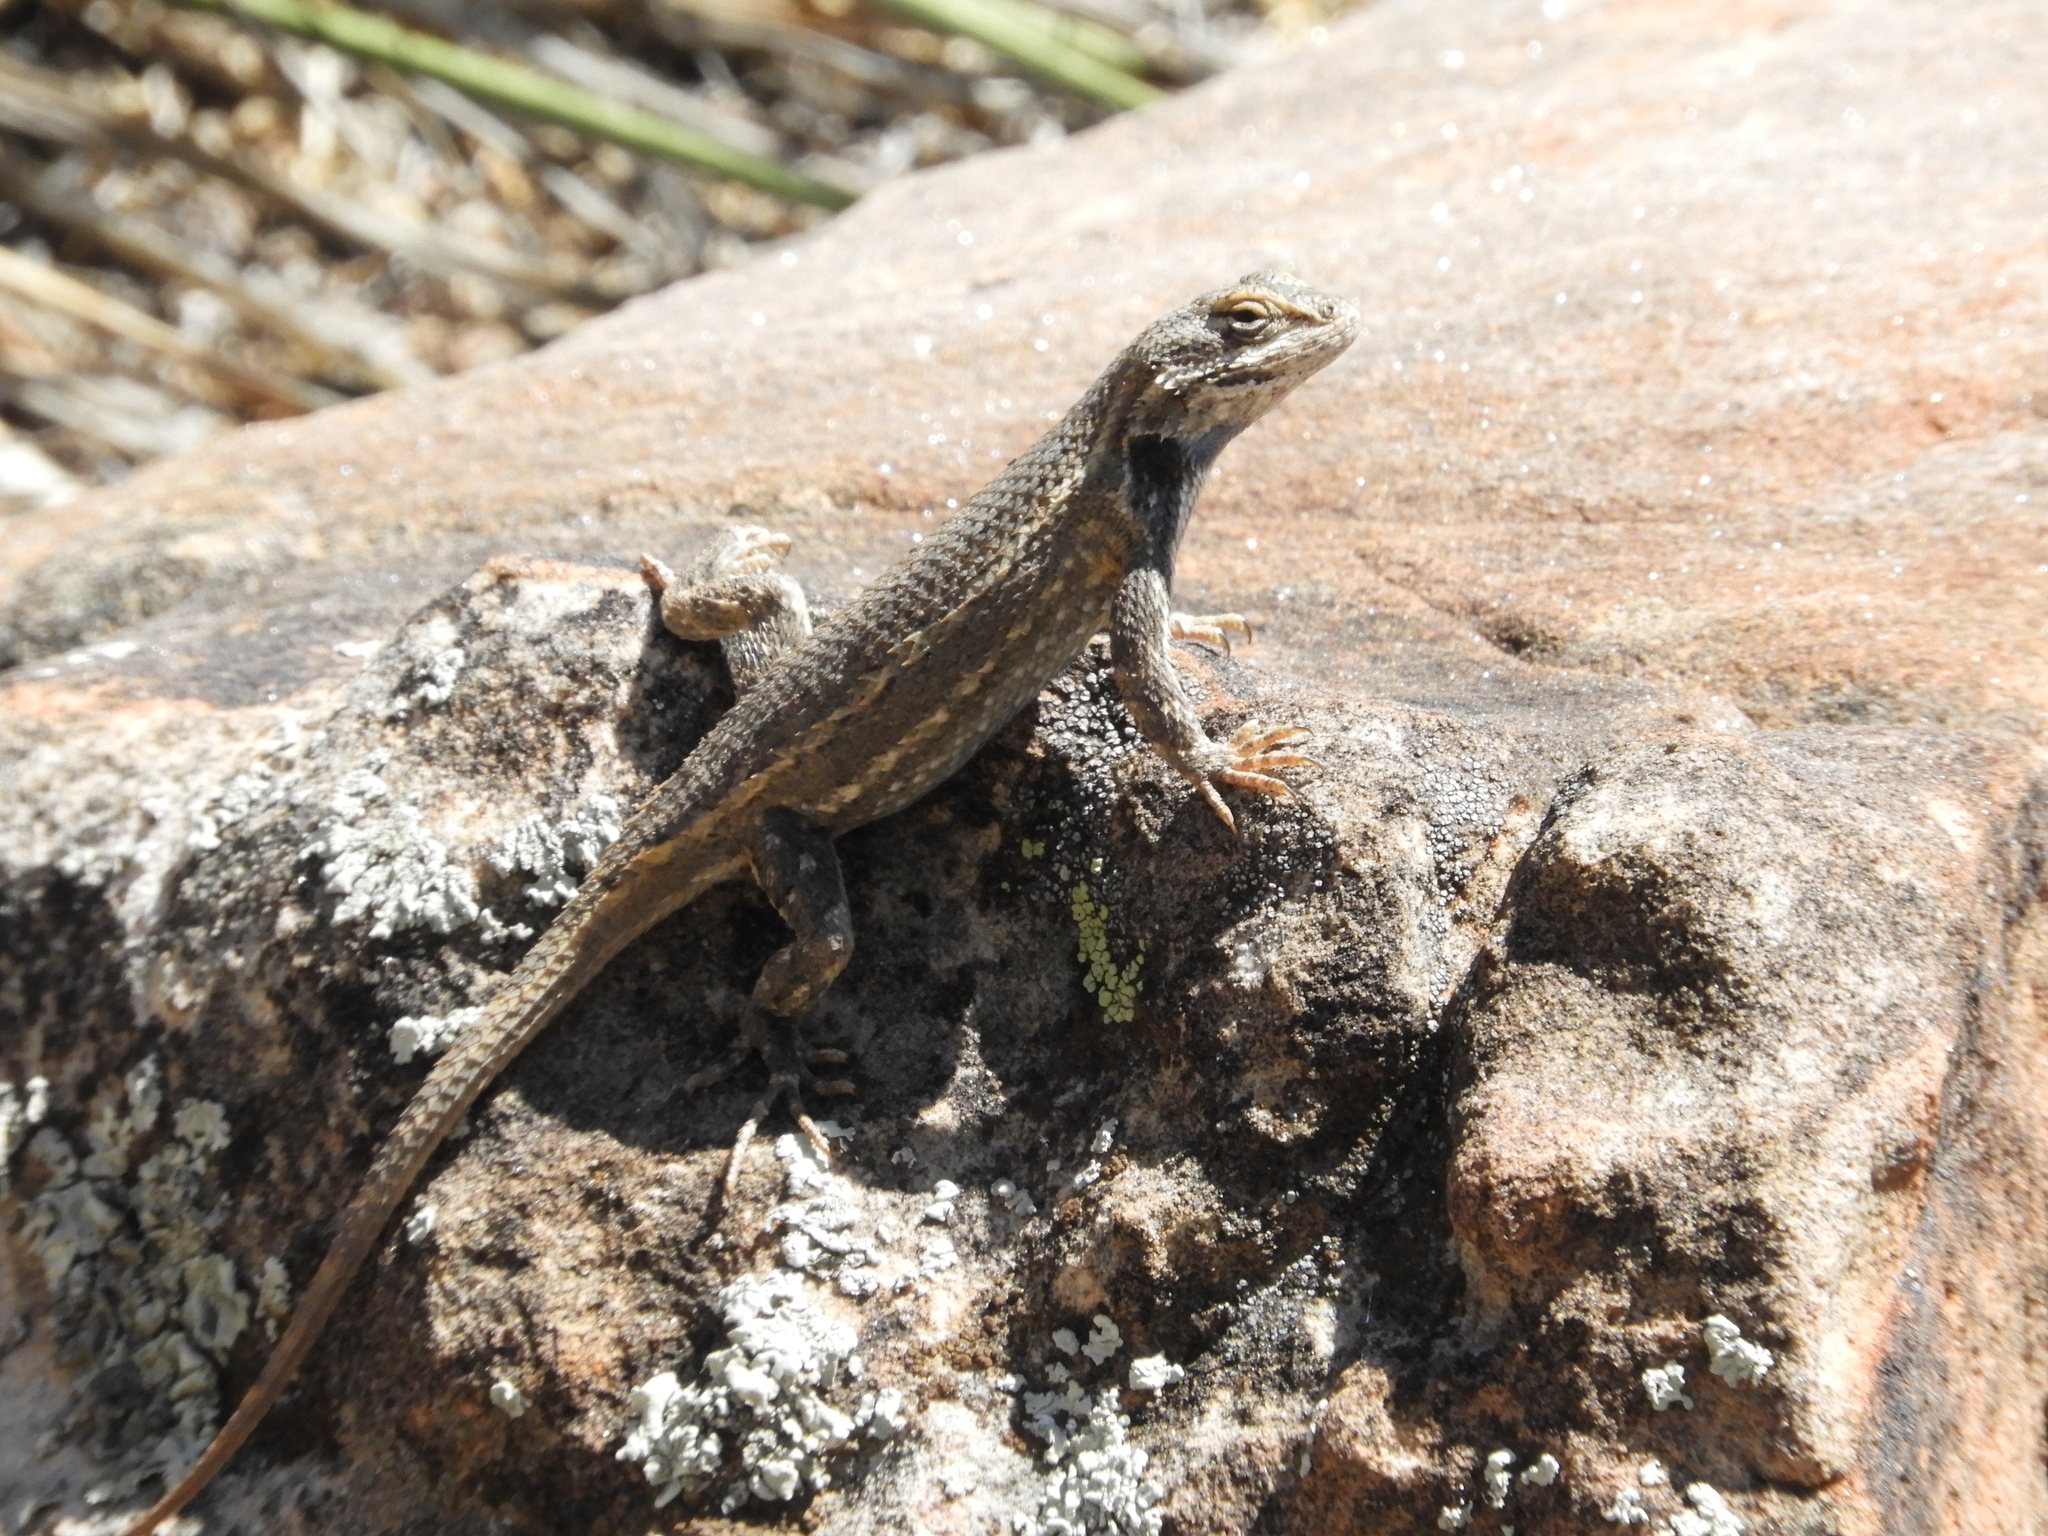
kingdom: Animalia
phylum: Chordata
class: Squamata
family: Phrynosomatidae
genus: Sceloporus
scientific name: Sceloporus cowlesi
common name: White sands prairie lizard
